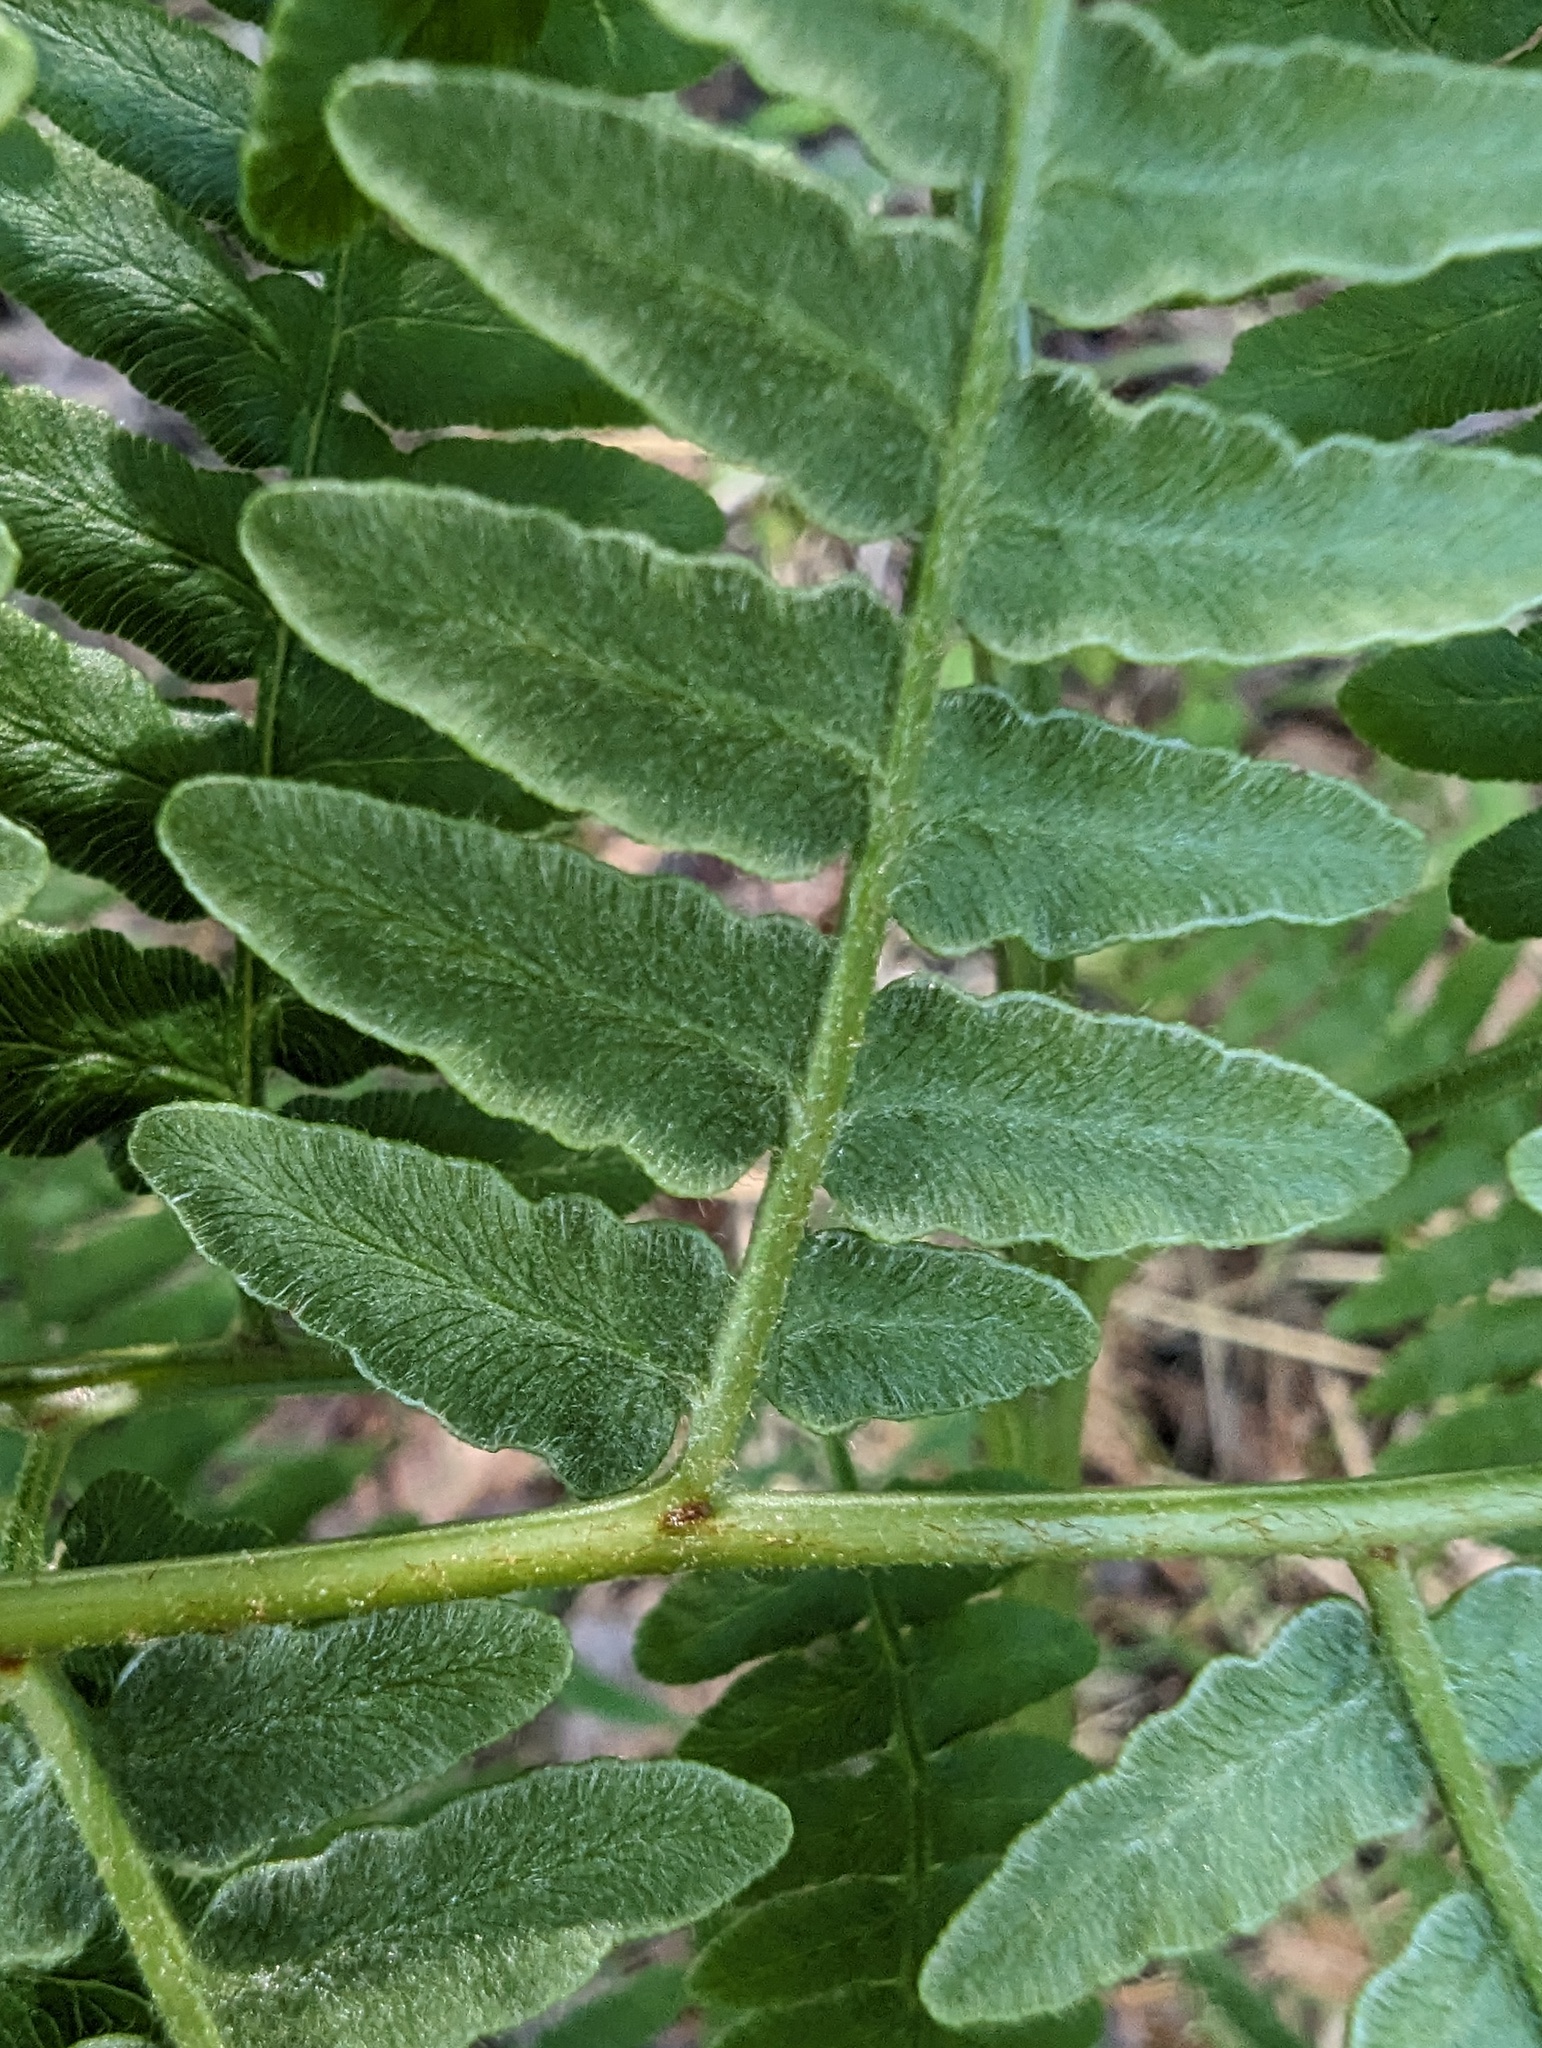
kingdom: Plantae
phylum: Tracheophyta
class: Polypodiopsida
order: Polypodiales
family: Dennstaedtiaceae
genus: Pteridium
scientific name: Pteridium aquilinum
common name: Bracken
